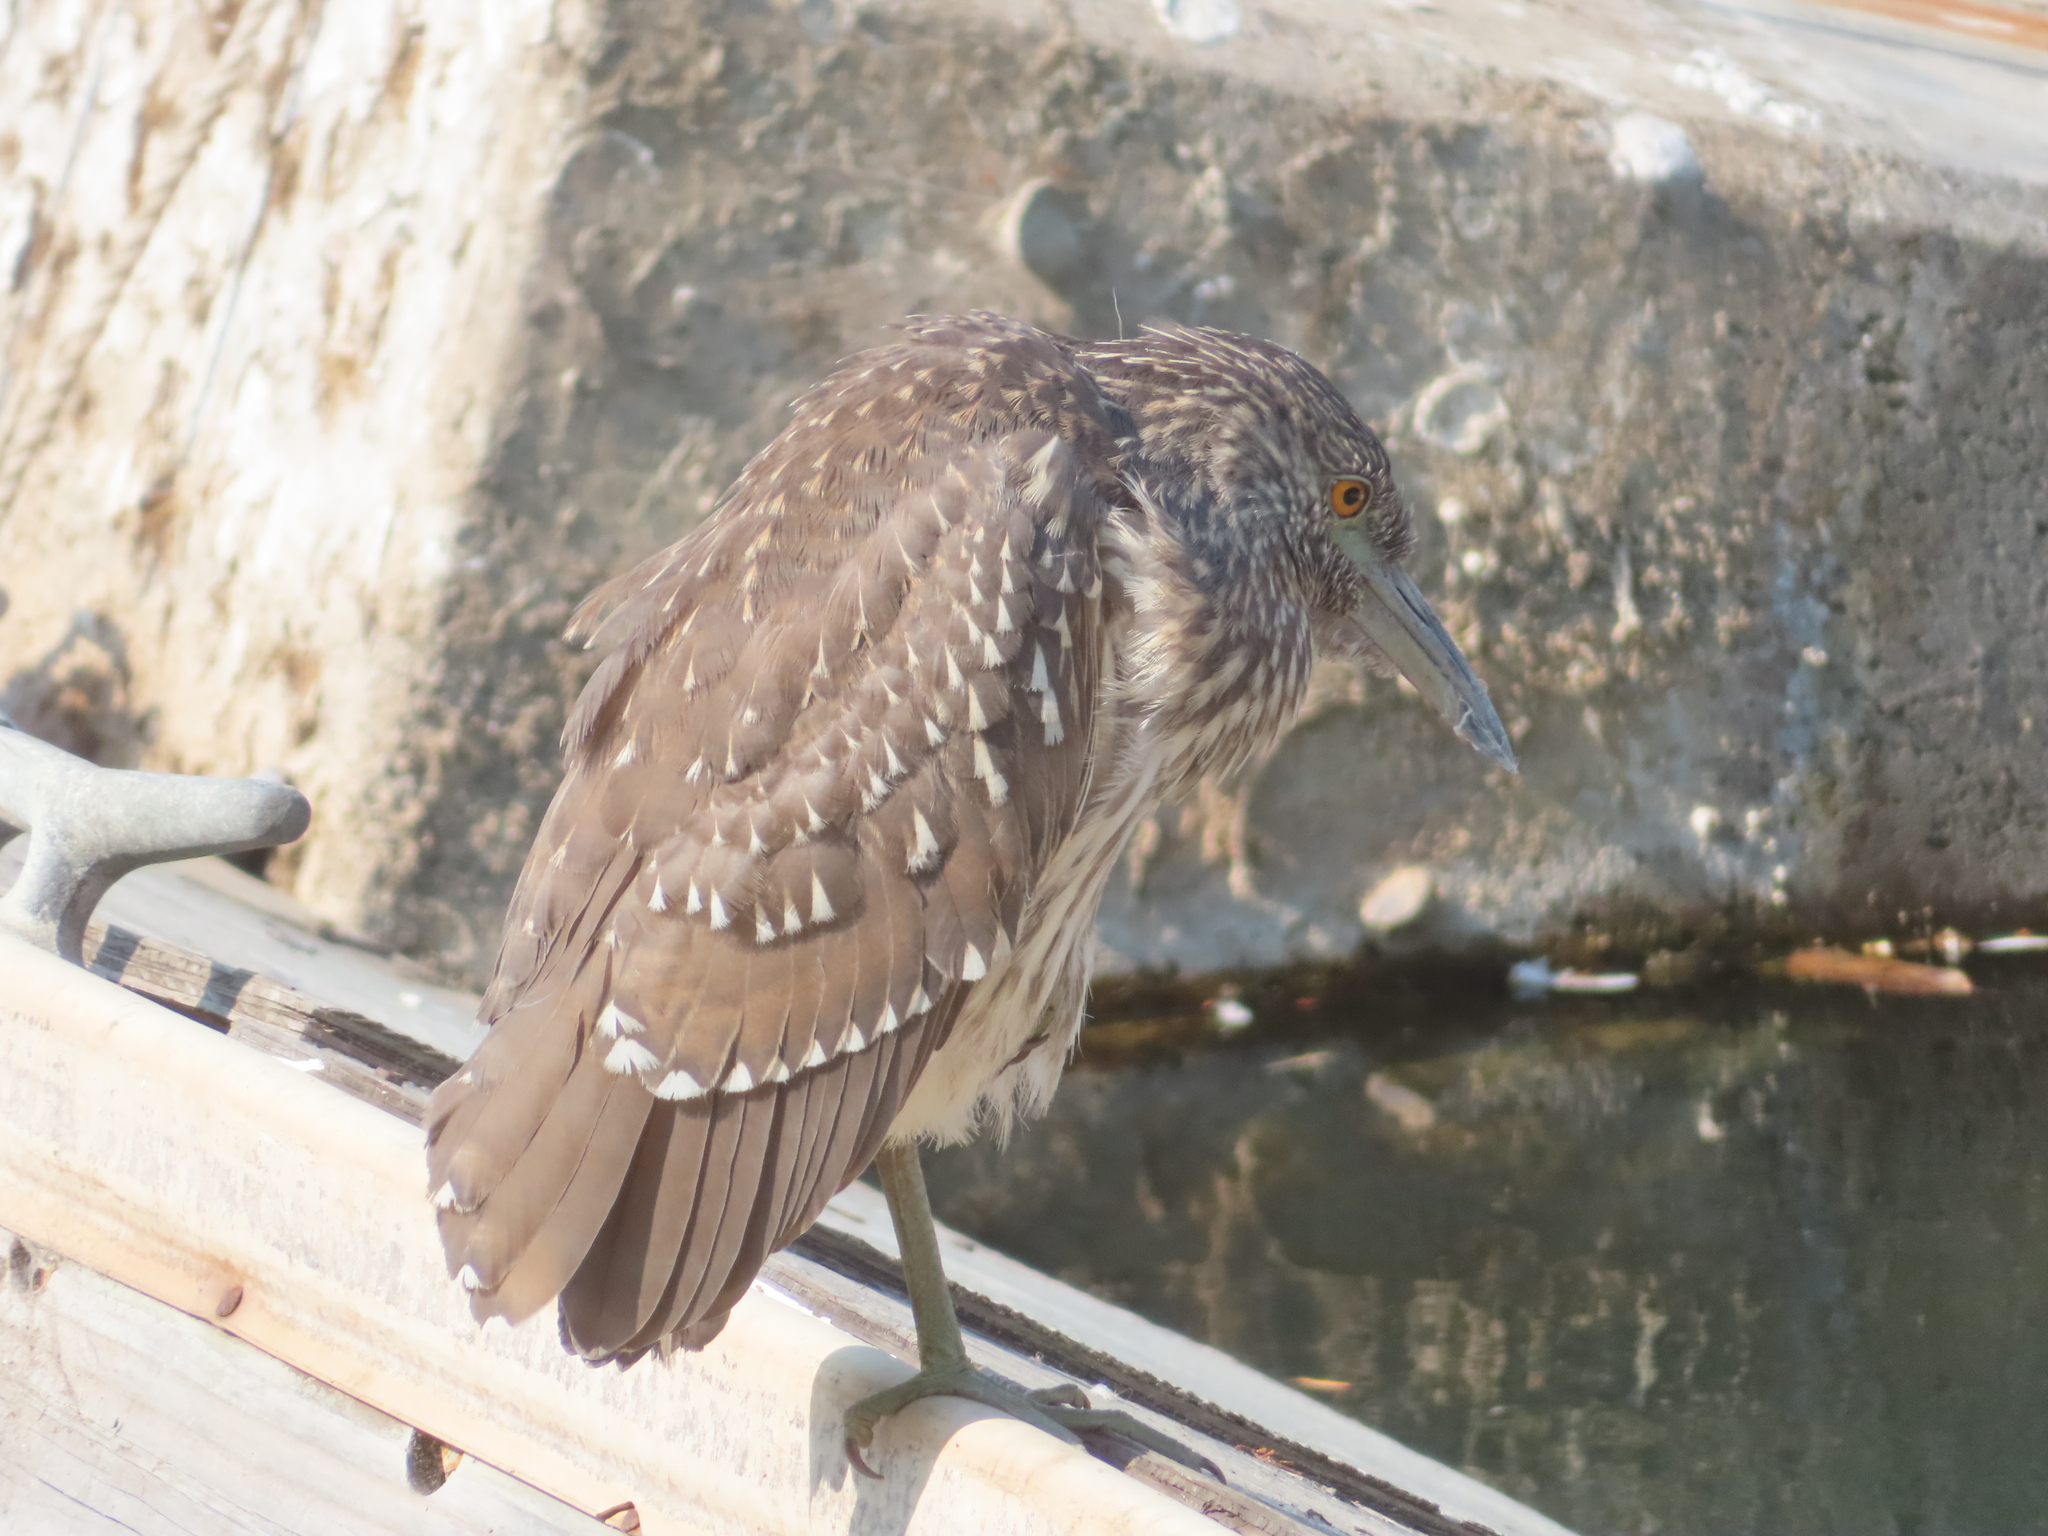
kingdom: Animalia
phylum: Chordata
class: Aves
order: Pelecaniformes
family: Ardeidae
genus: Nycticorax
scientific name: Nycticorax nycticorax
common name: Black-crowned night heron
